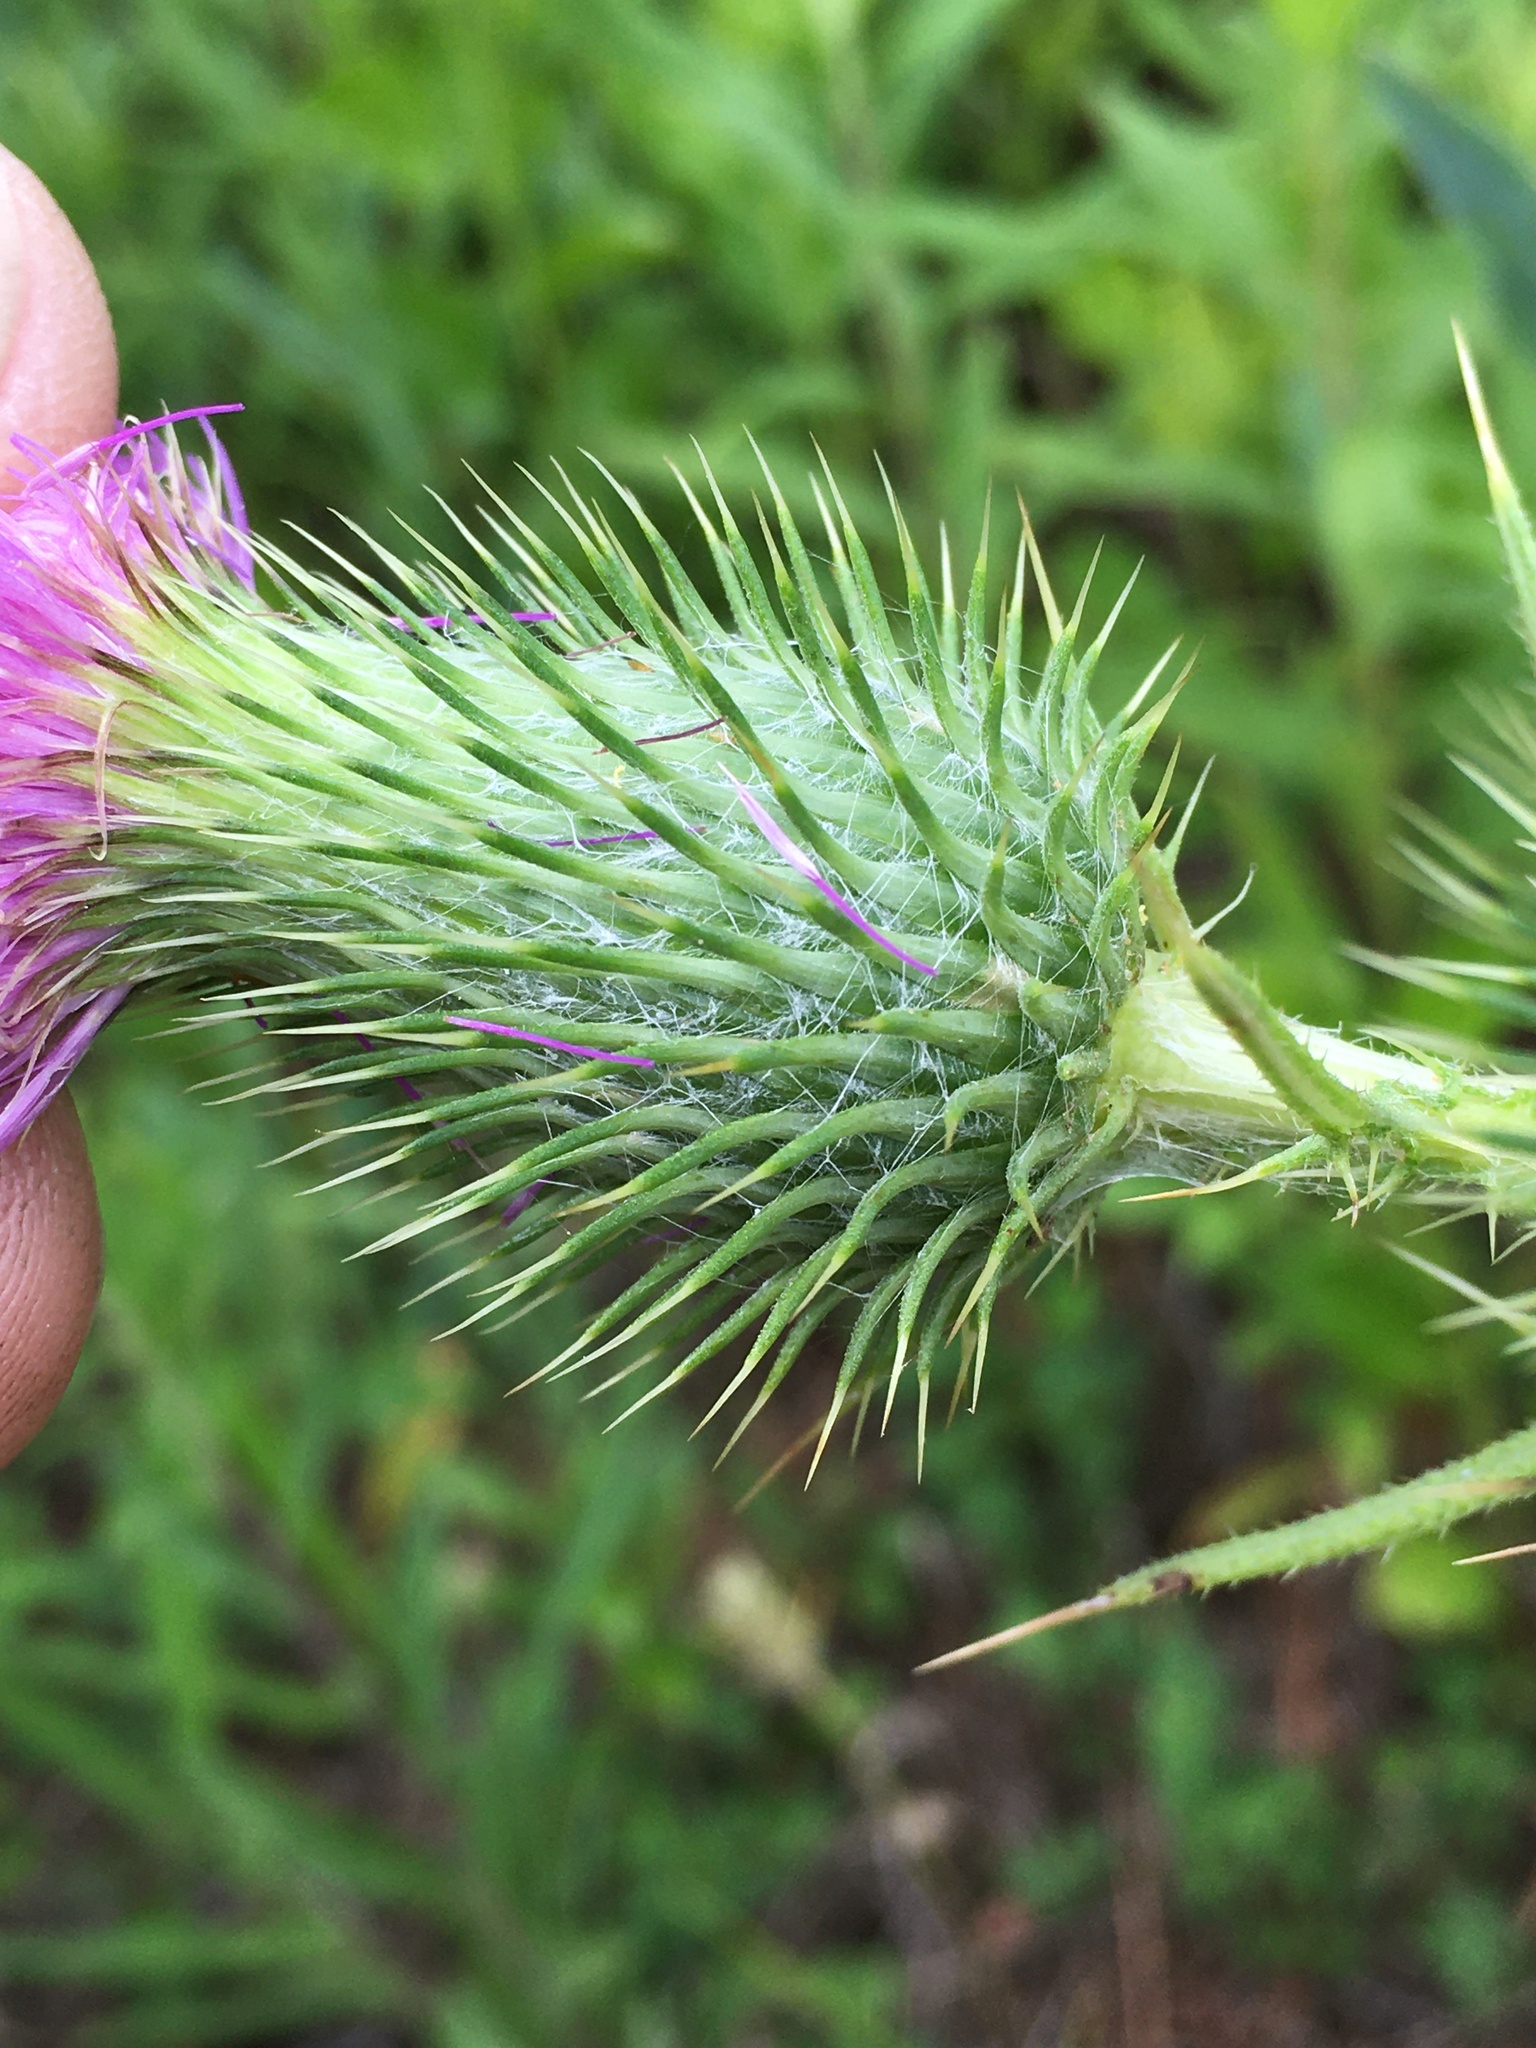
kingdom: Plantae
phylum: Tracheophyta
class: Magnoliopsida
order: Asterales
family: Asteraceae
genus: Cirsium
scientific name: Cirsium vulgare
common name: Bull thistle
